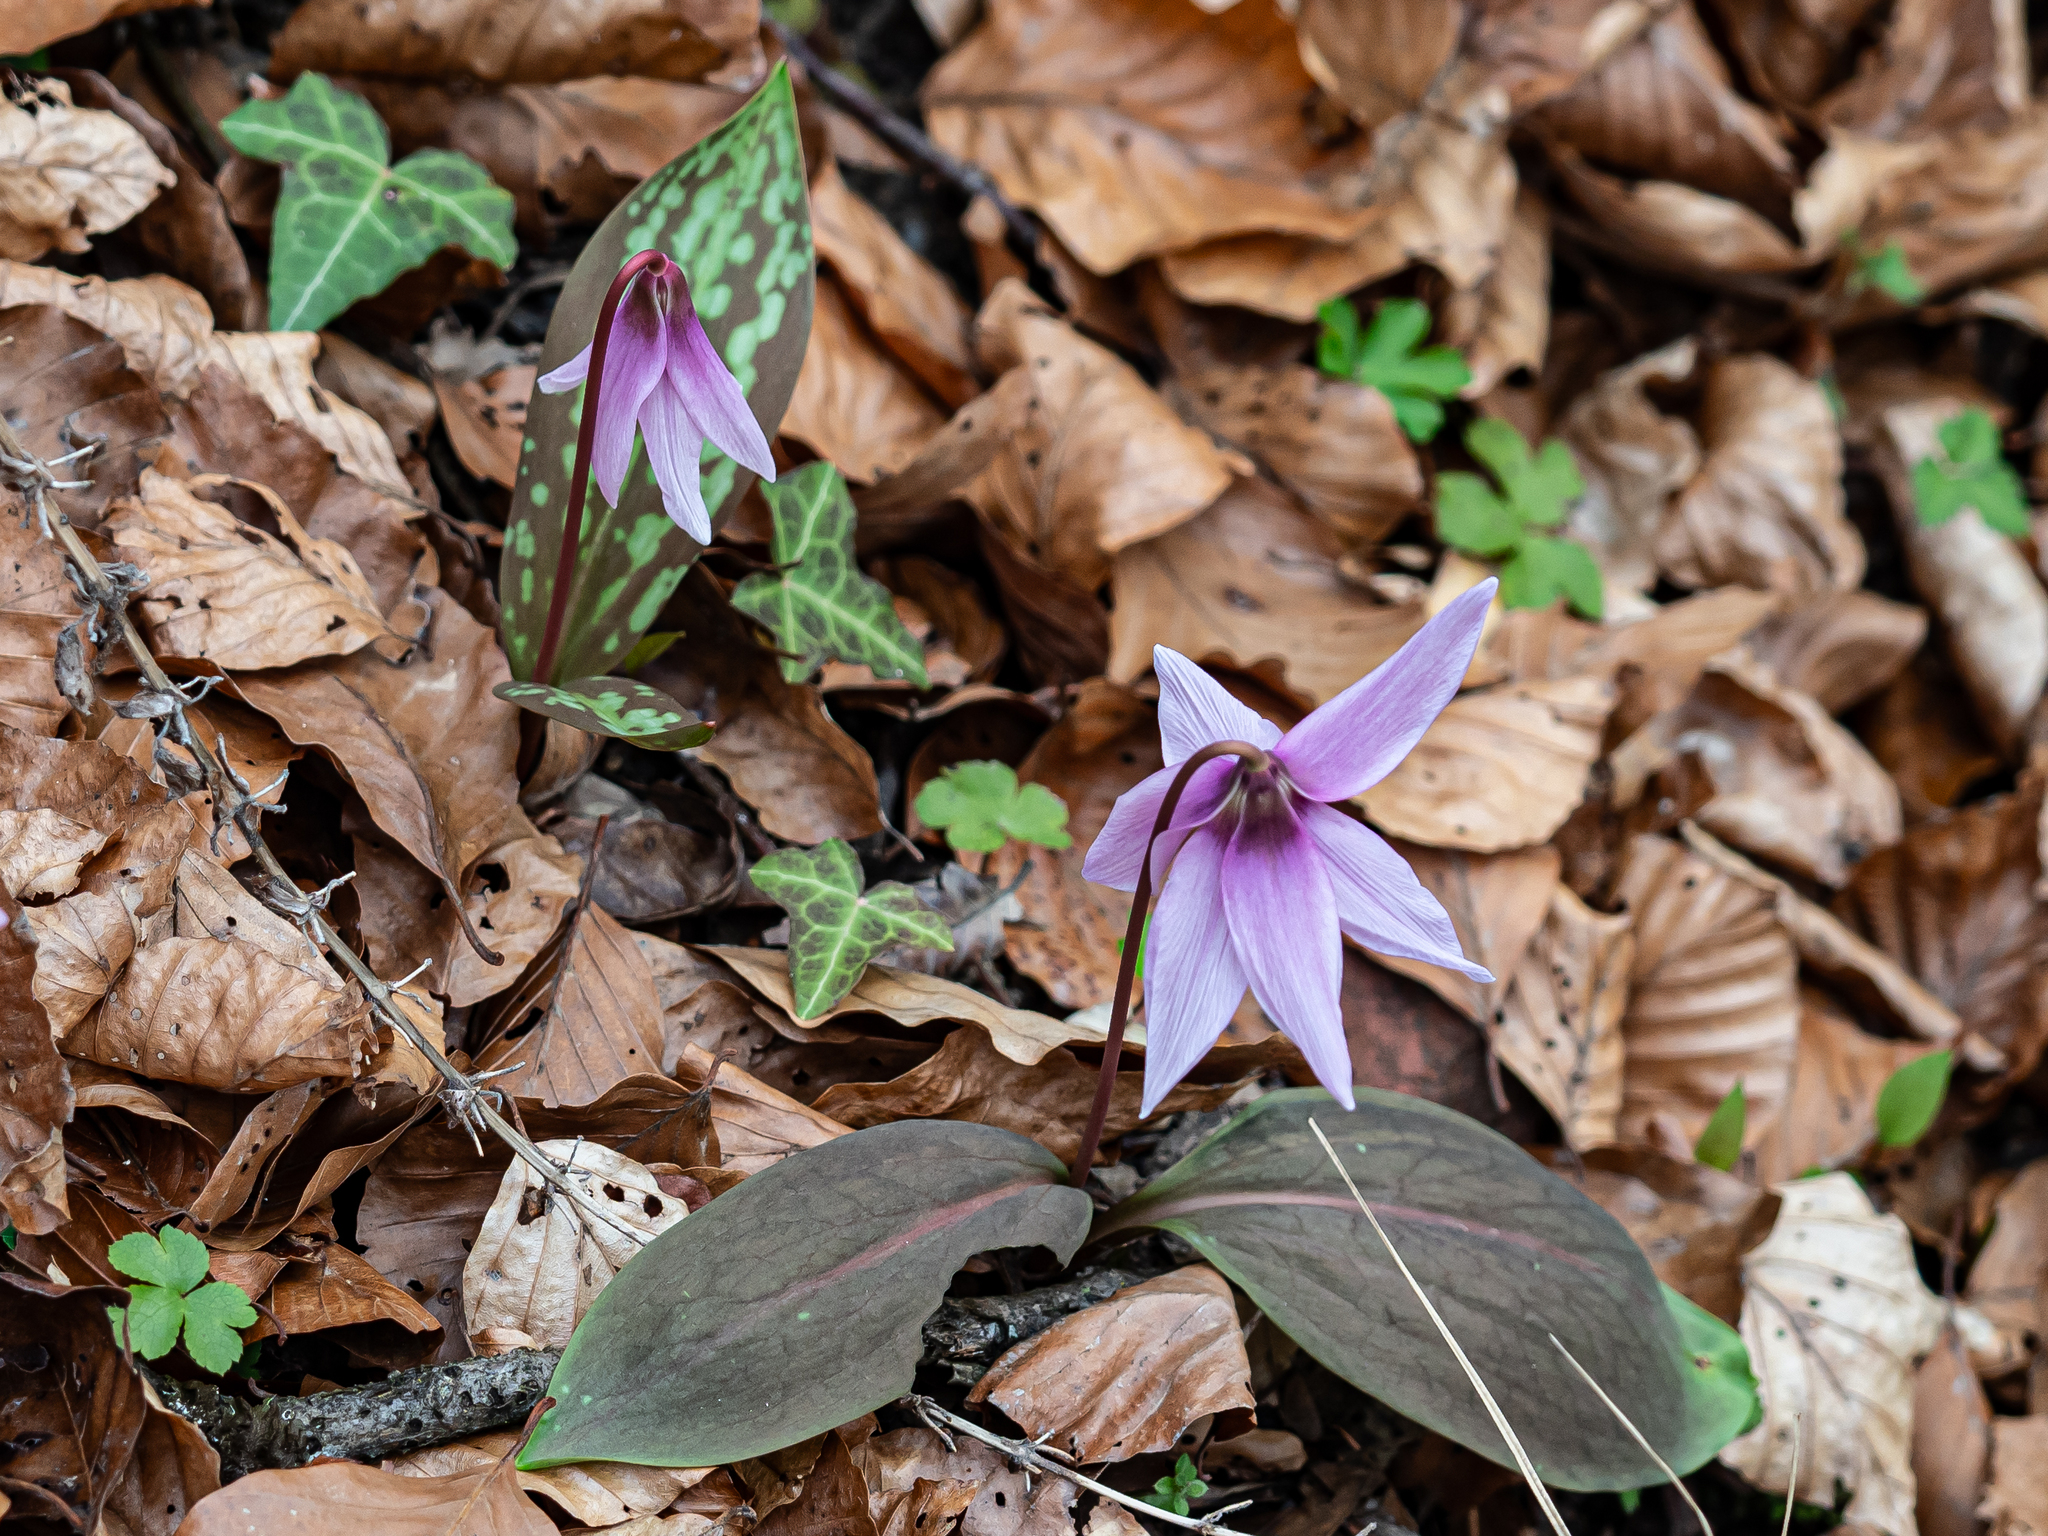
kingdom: Plantae
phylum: Tracheophyta
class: Liliopsida
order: Liliales
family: Liliaceae
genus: Erythronium
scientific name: Erythronium dens-canis
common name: Dog's-tooth-violet
